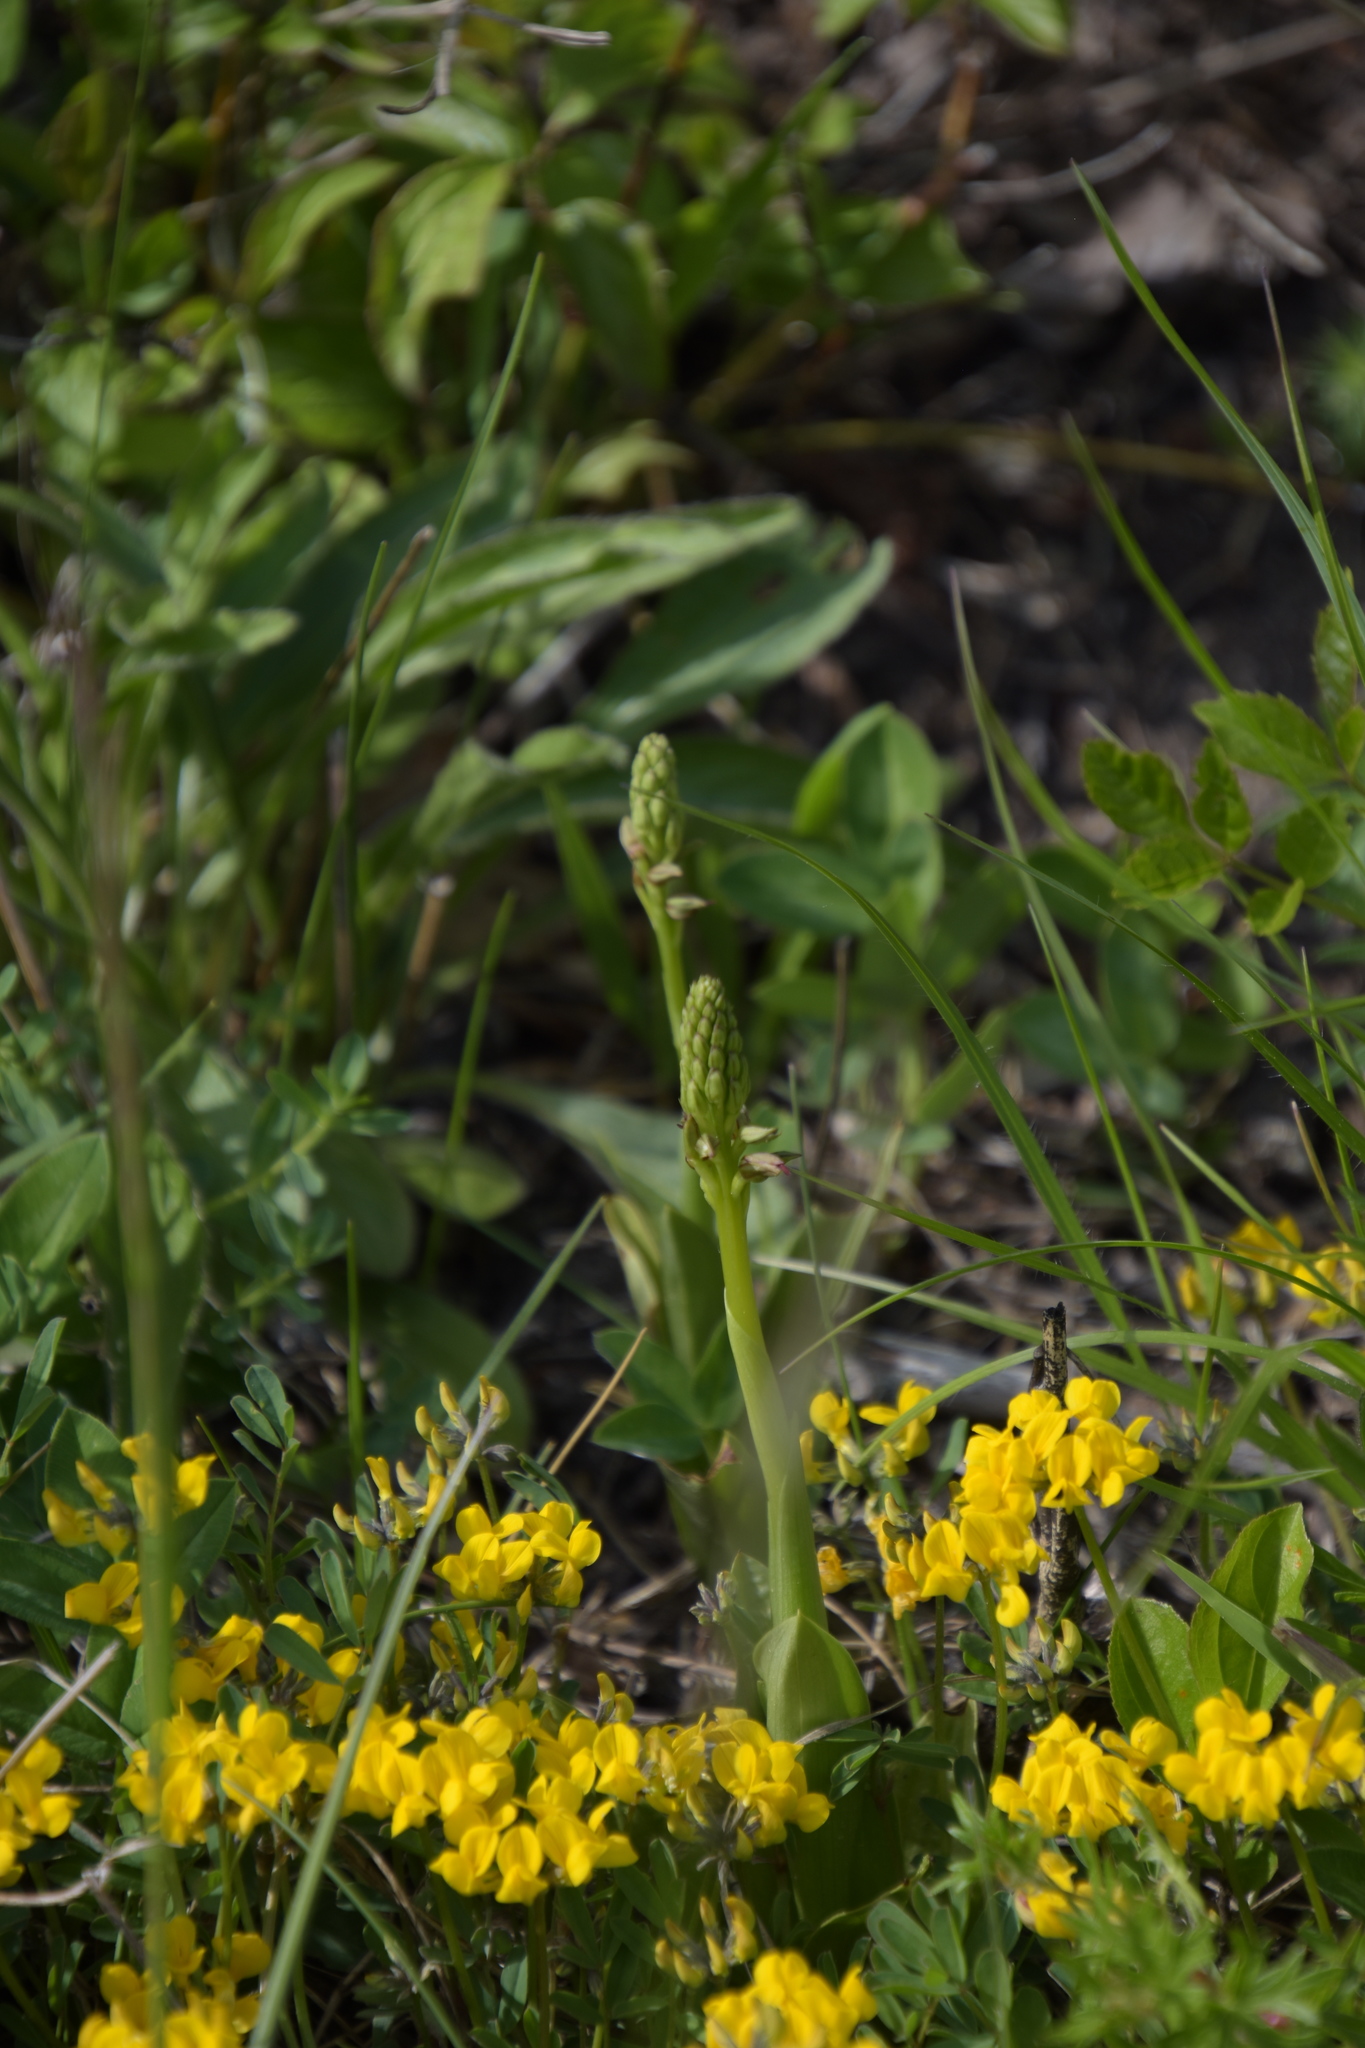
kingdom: Plantae
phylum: Tracheophyta
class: Liliopsida
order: Asparagales
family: Orchidaceae
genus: Orchis
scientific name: Orchis anthropophora
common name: Man orchid
